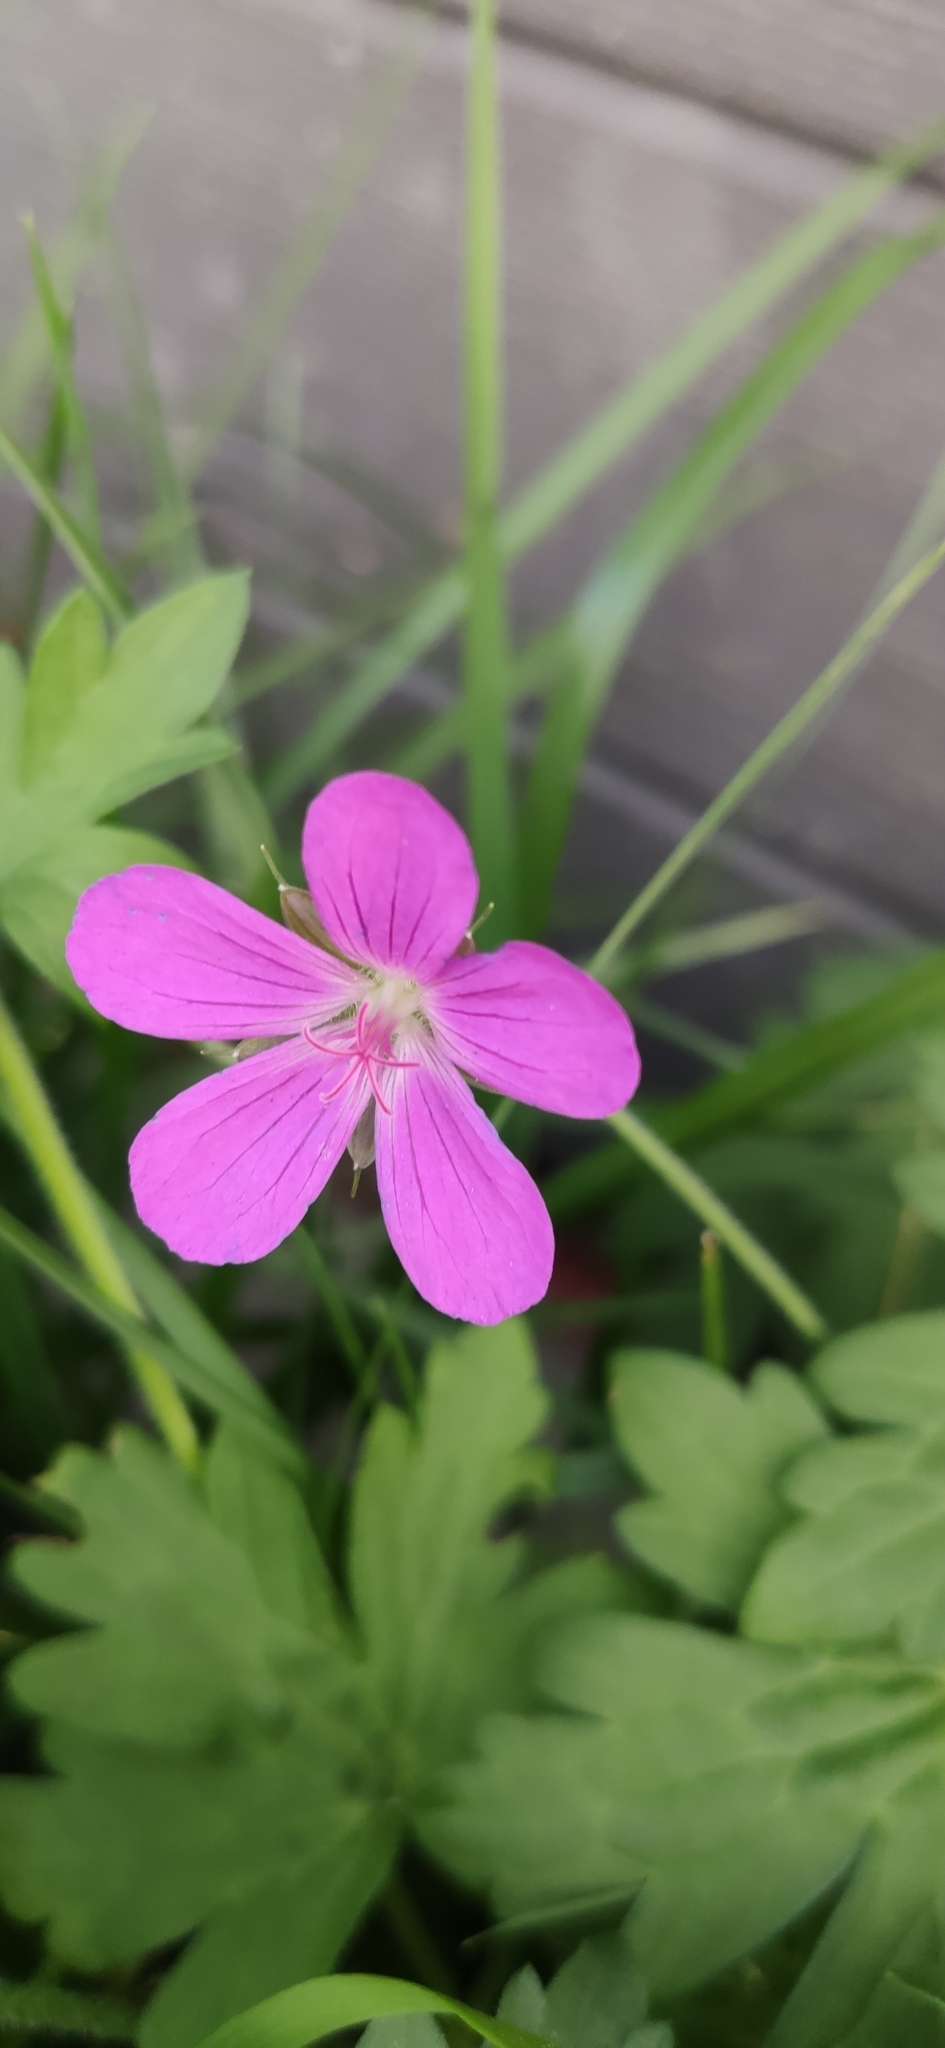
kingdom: Plantae
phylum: Tracheophyta
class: Magnoliopsida
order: Geraniales
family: Geraniaceae
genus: Geranium
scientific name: Geranium palustre
